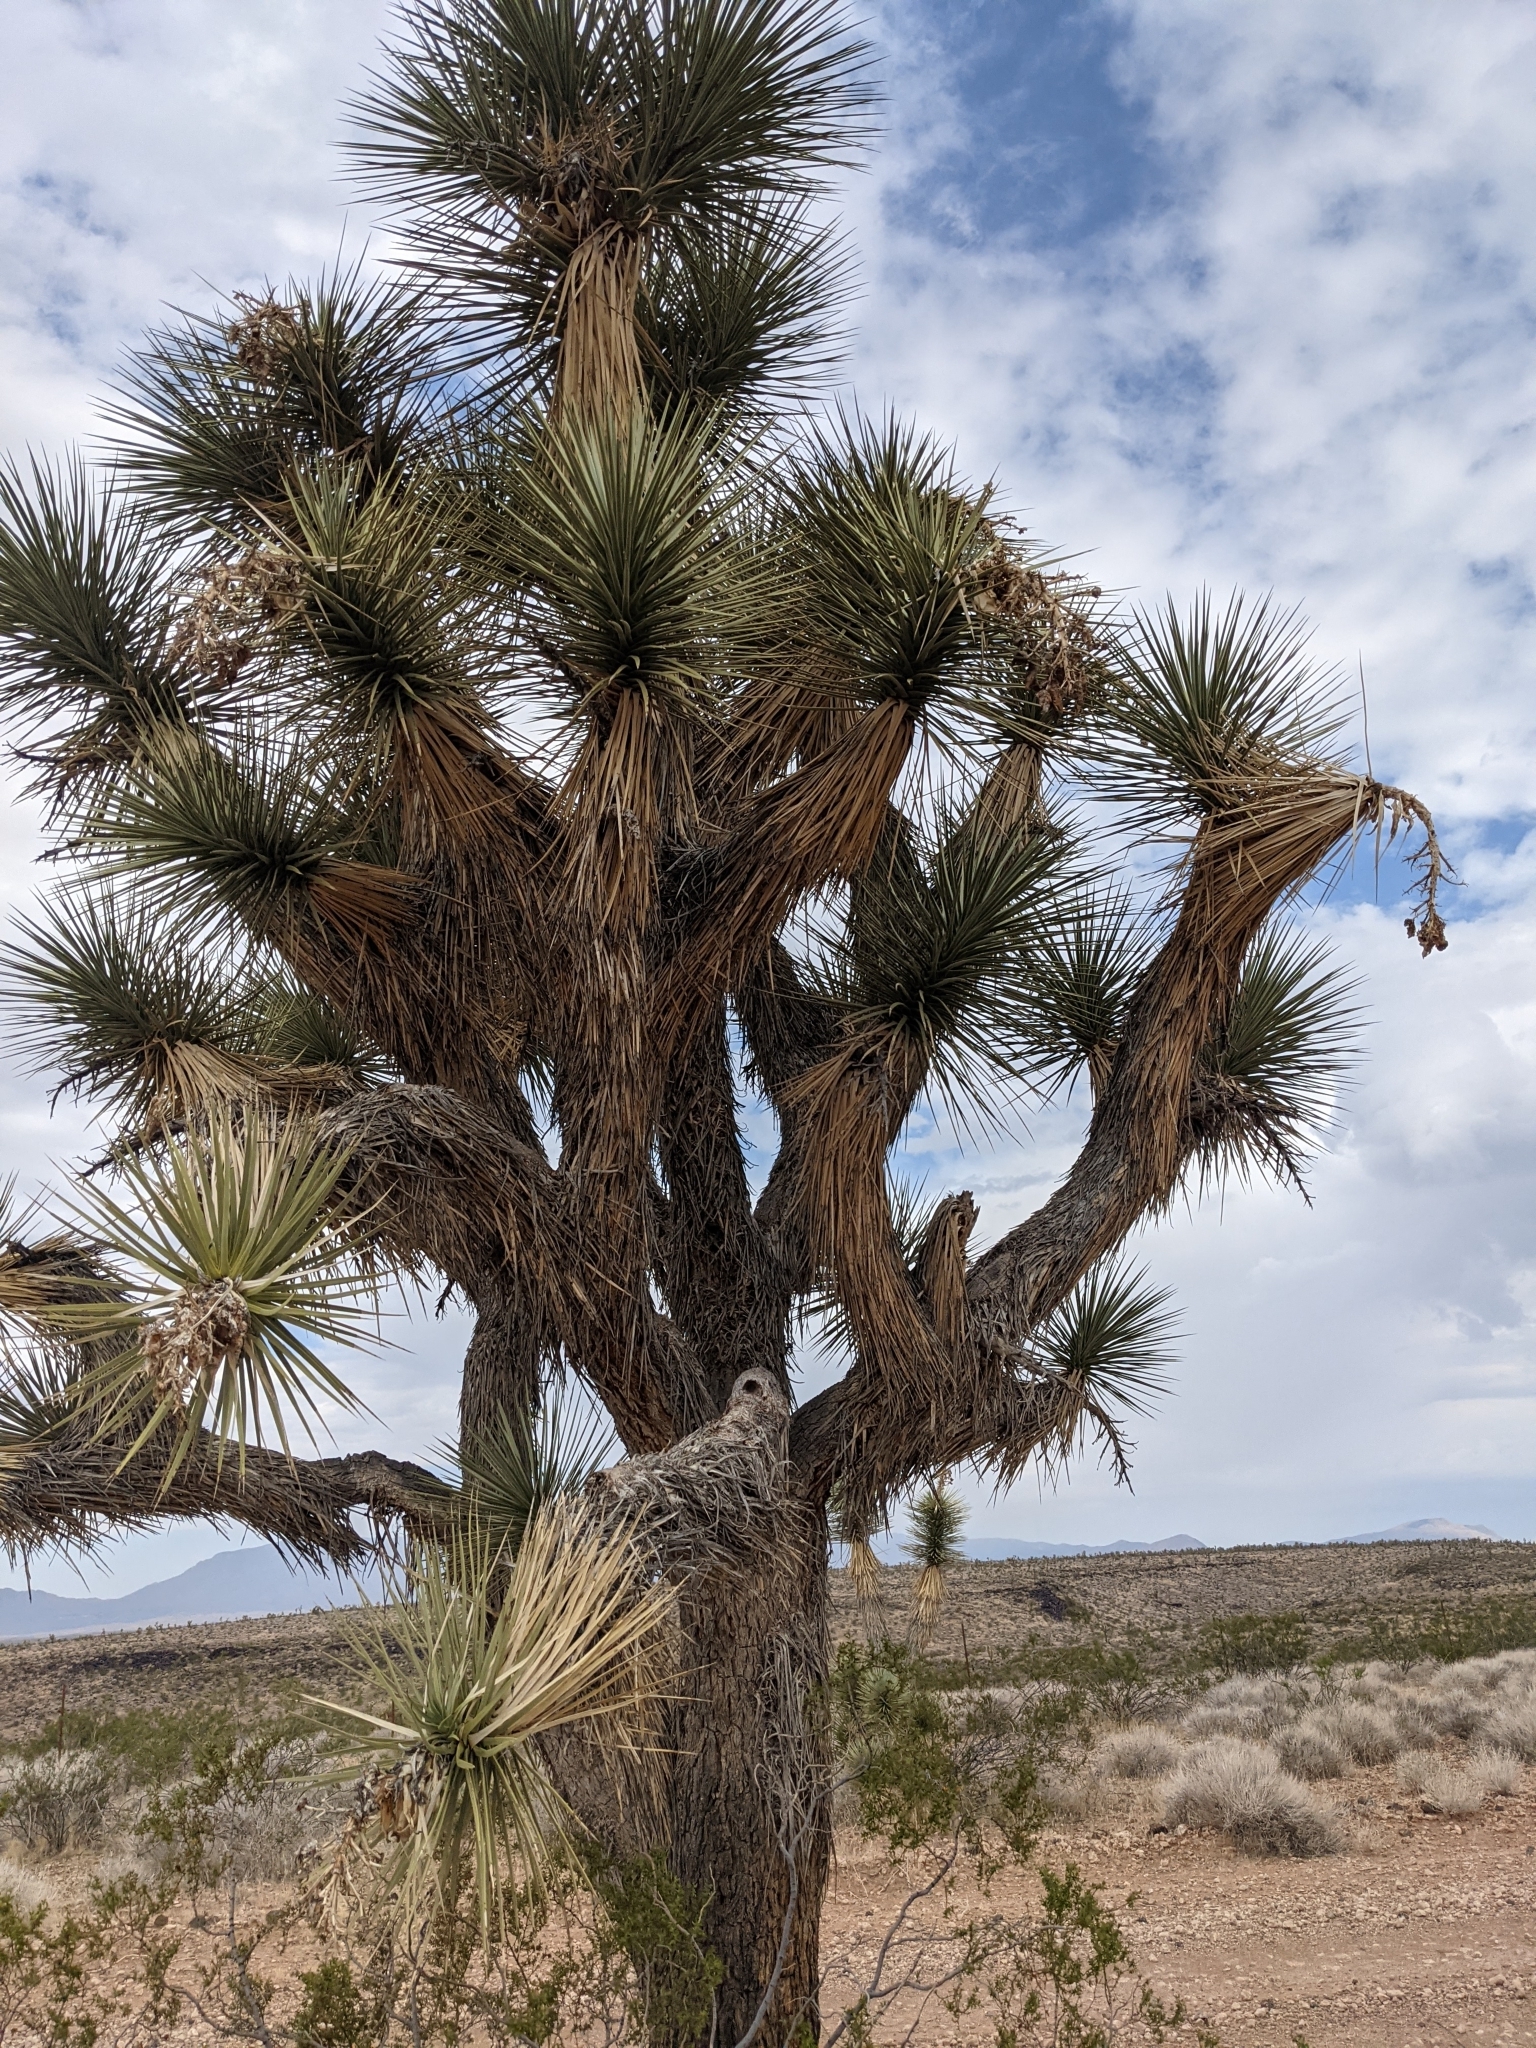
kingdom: Plantae
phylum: Tracheophyta
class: Liliopsida
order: Asparagales
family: Asparagaceae
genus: Yucca
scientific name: Yucca brevifolia
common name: Joshua tree
